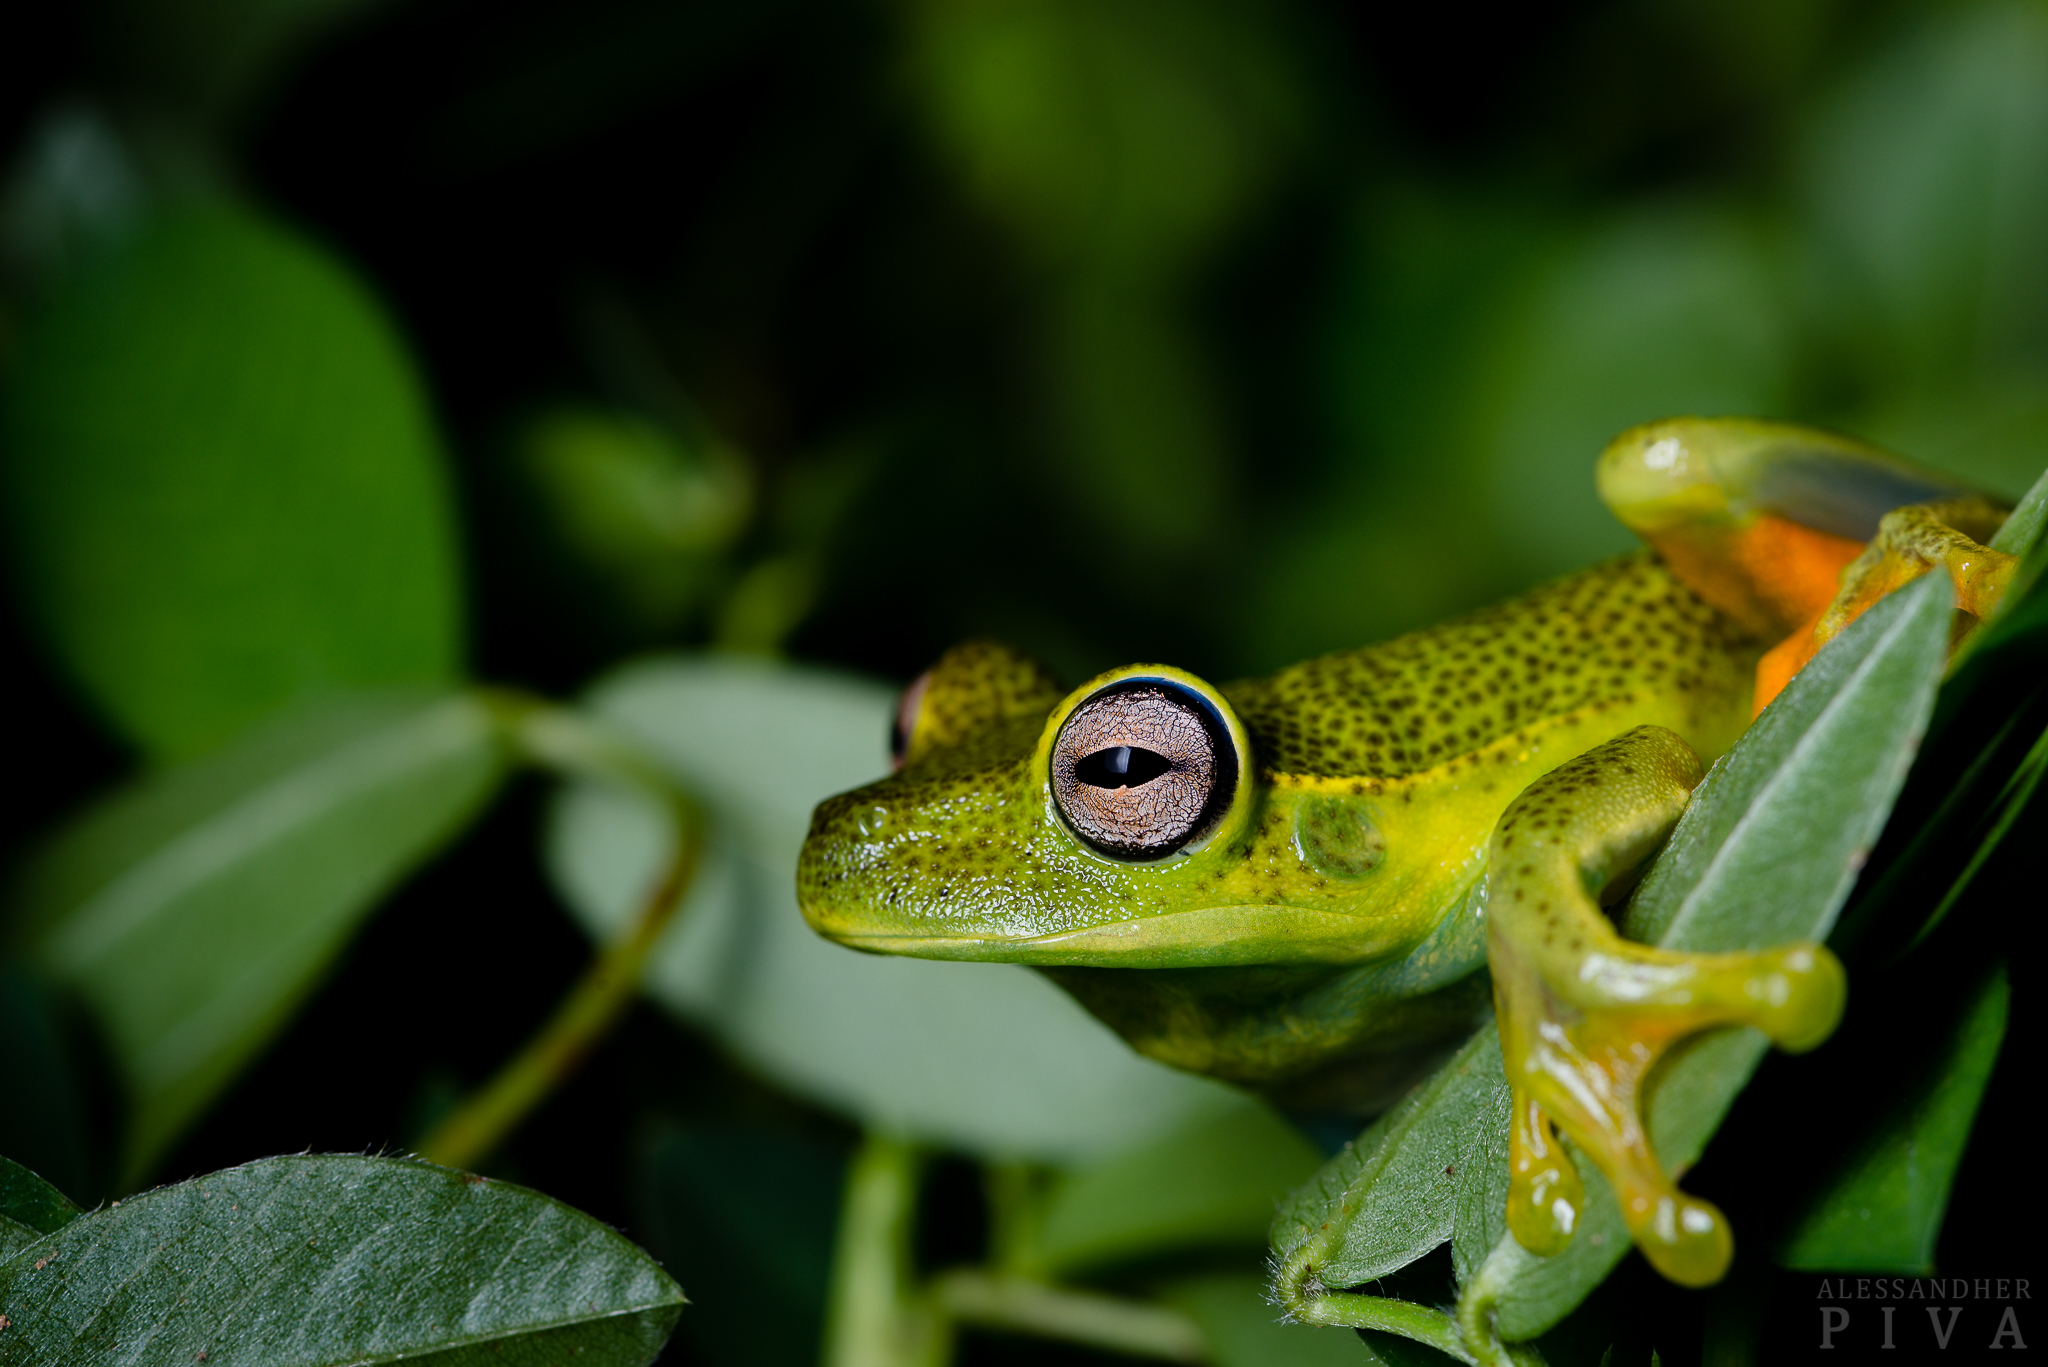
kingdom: Animalia
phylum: Chordata
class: Amphibia
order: Anura
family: Hylidae
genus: Boana
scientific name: Boana albomarginata
